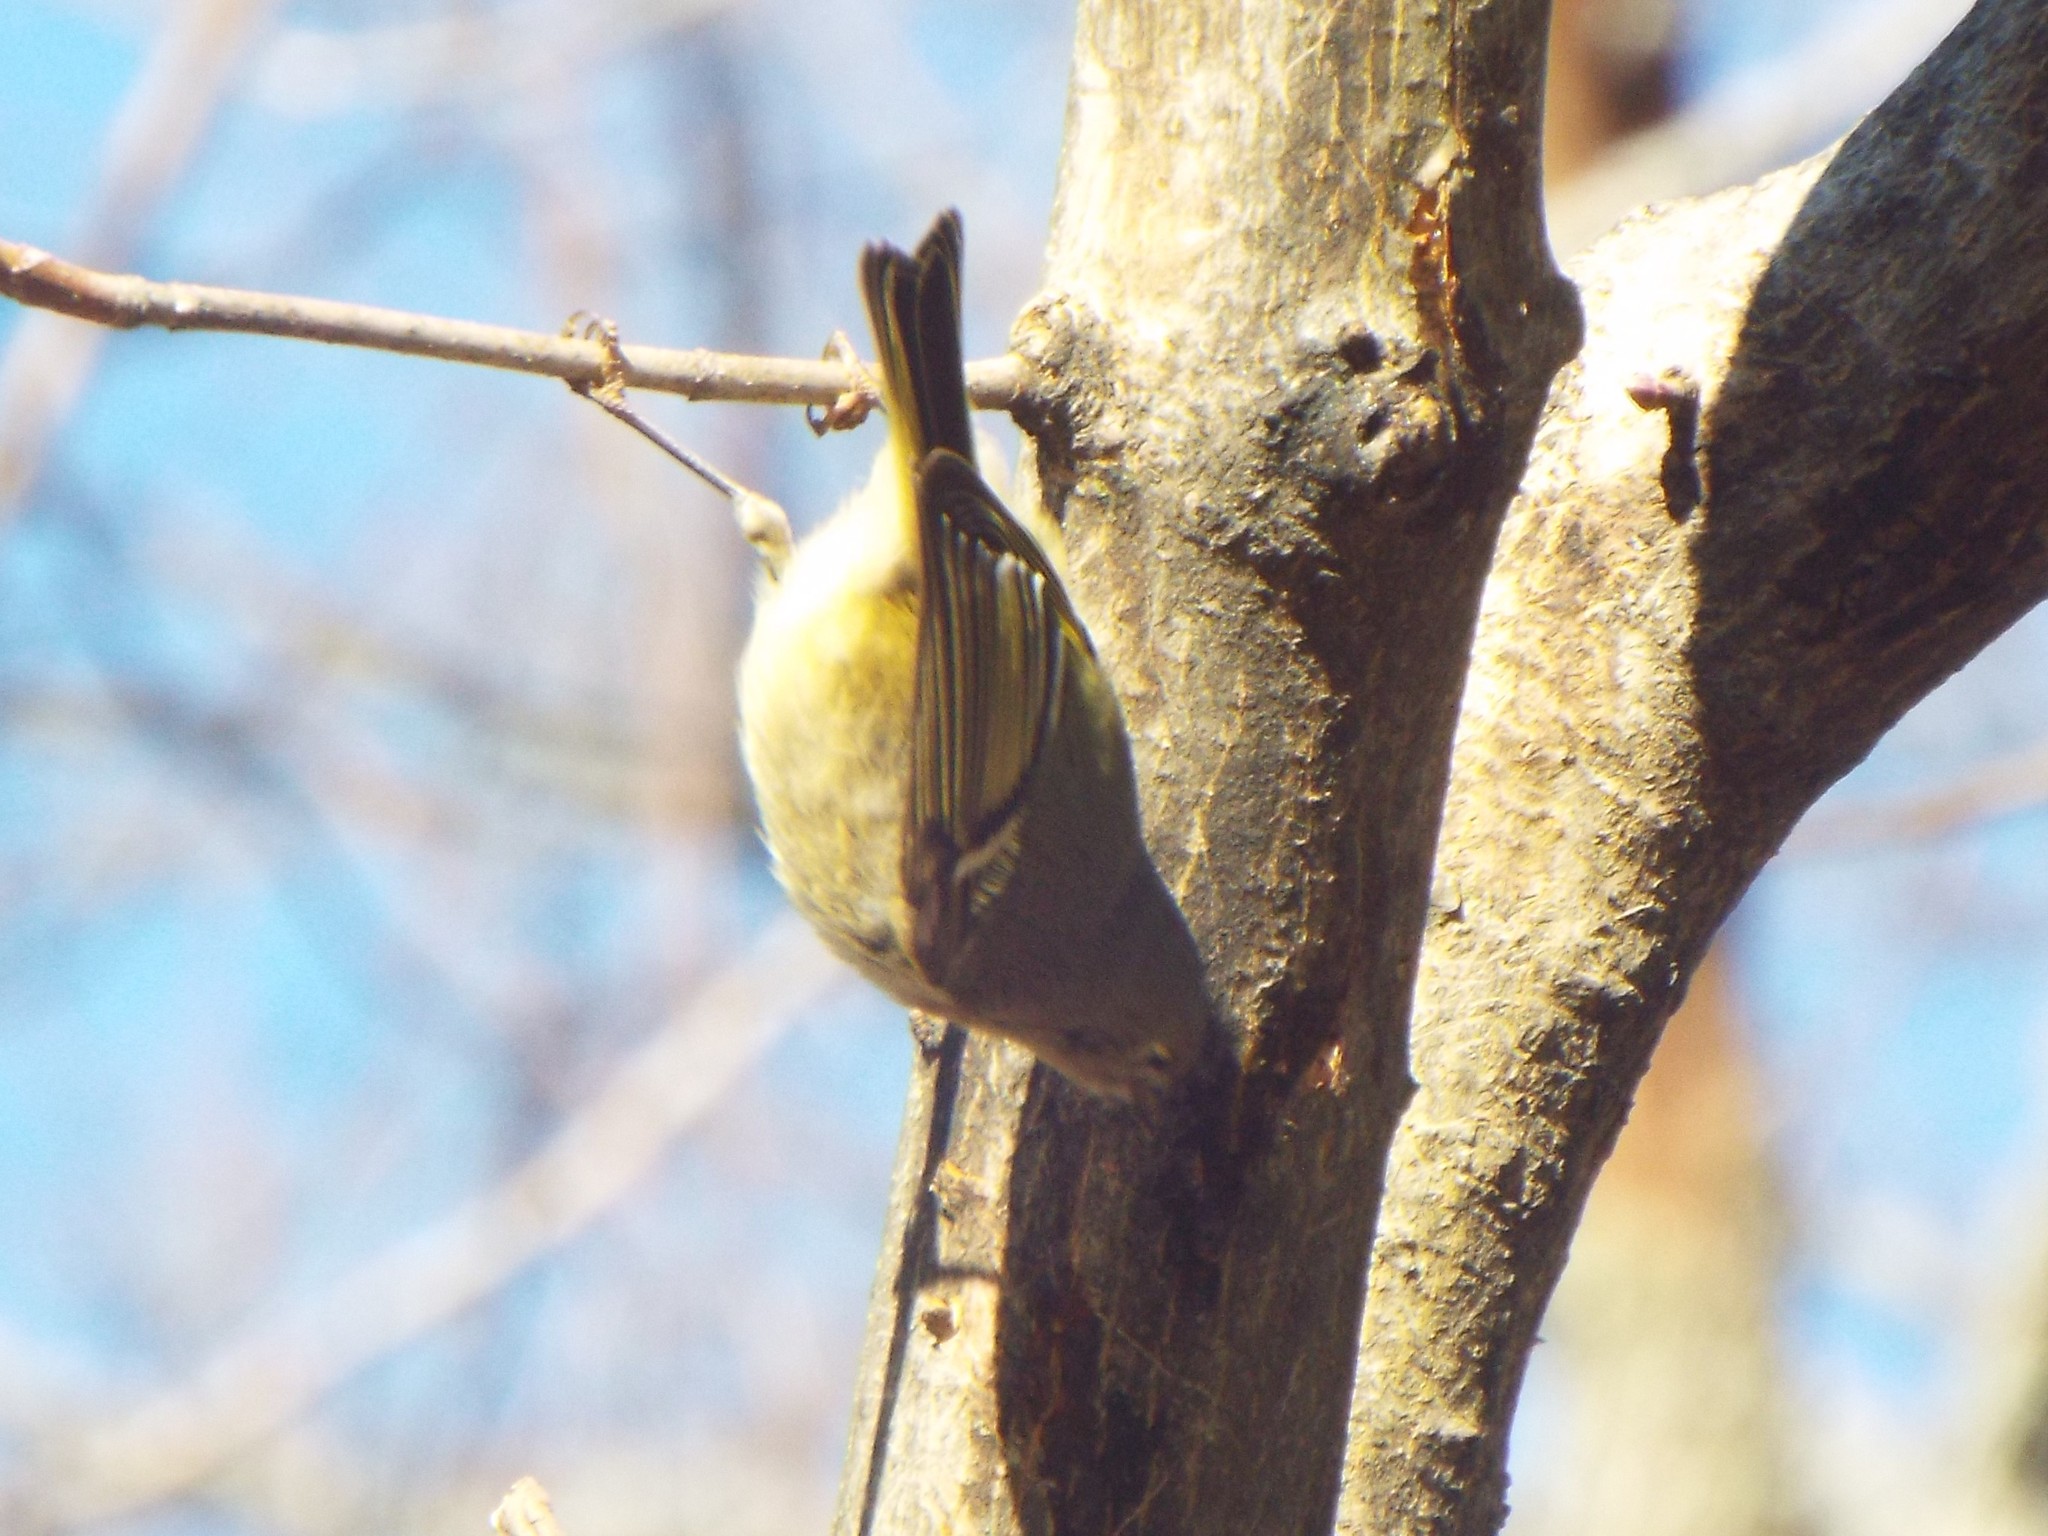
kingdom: Animalia
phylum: Chordata
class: Aves
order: Passeriformes
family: Regulidae
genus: Regulus
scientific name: Regulus calendula
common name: Ruby-crowned kinglet
